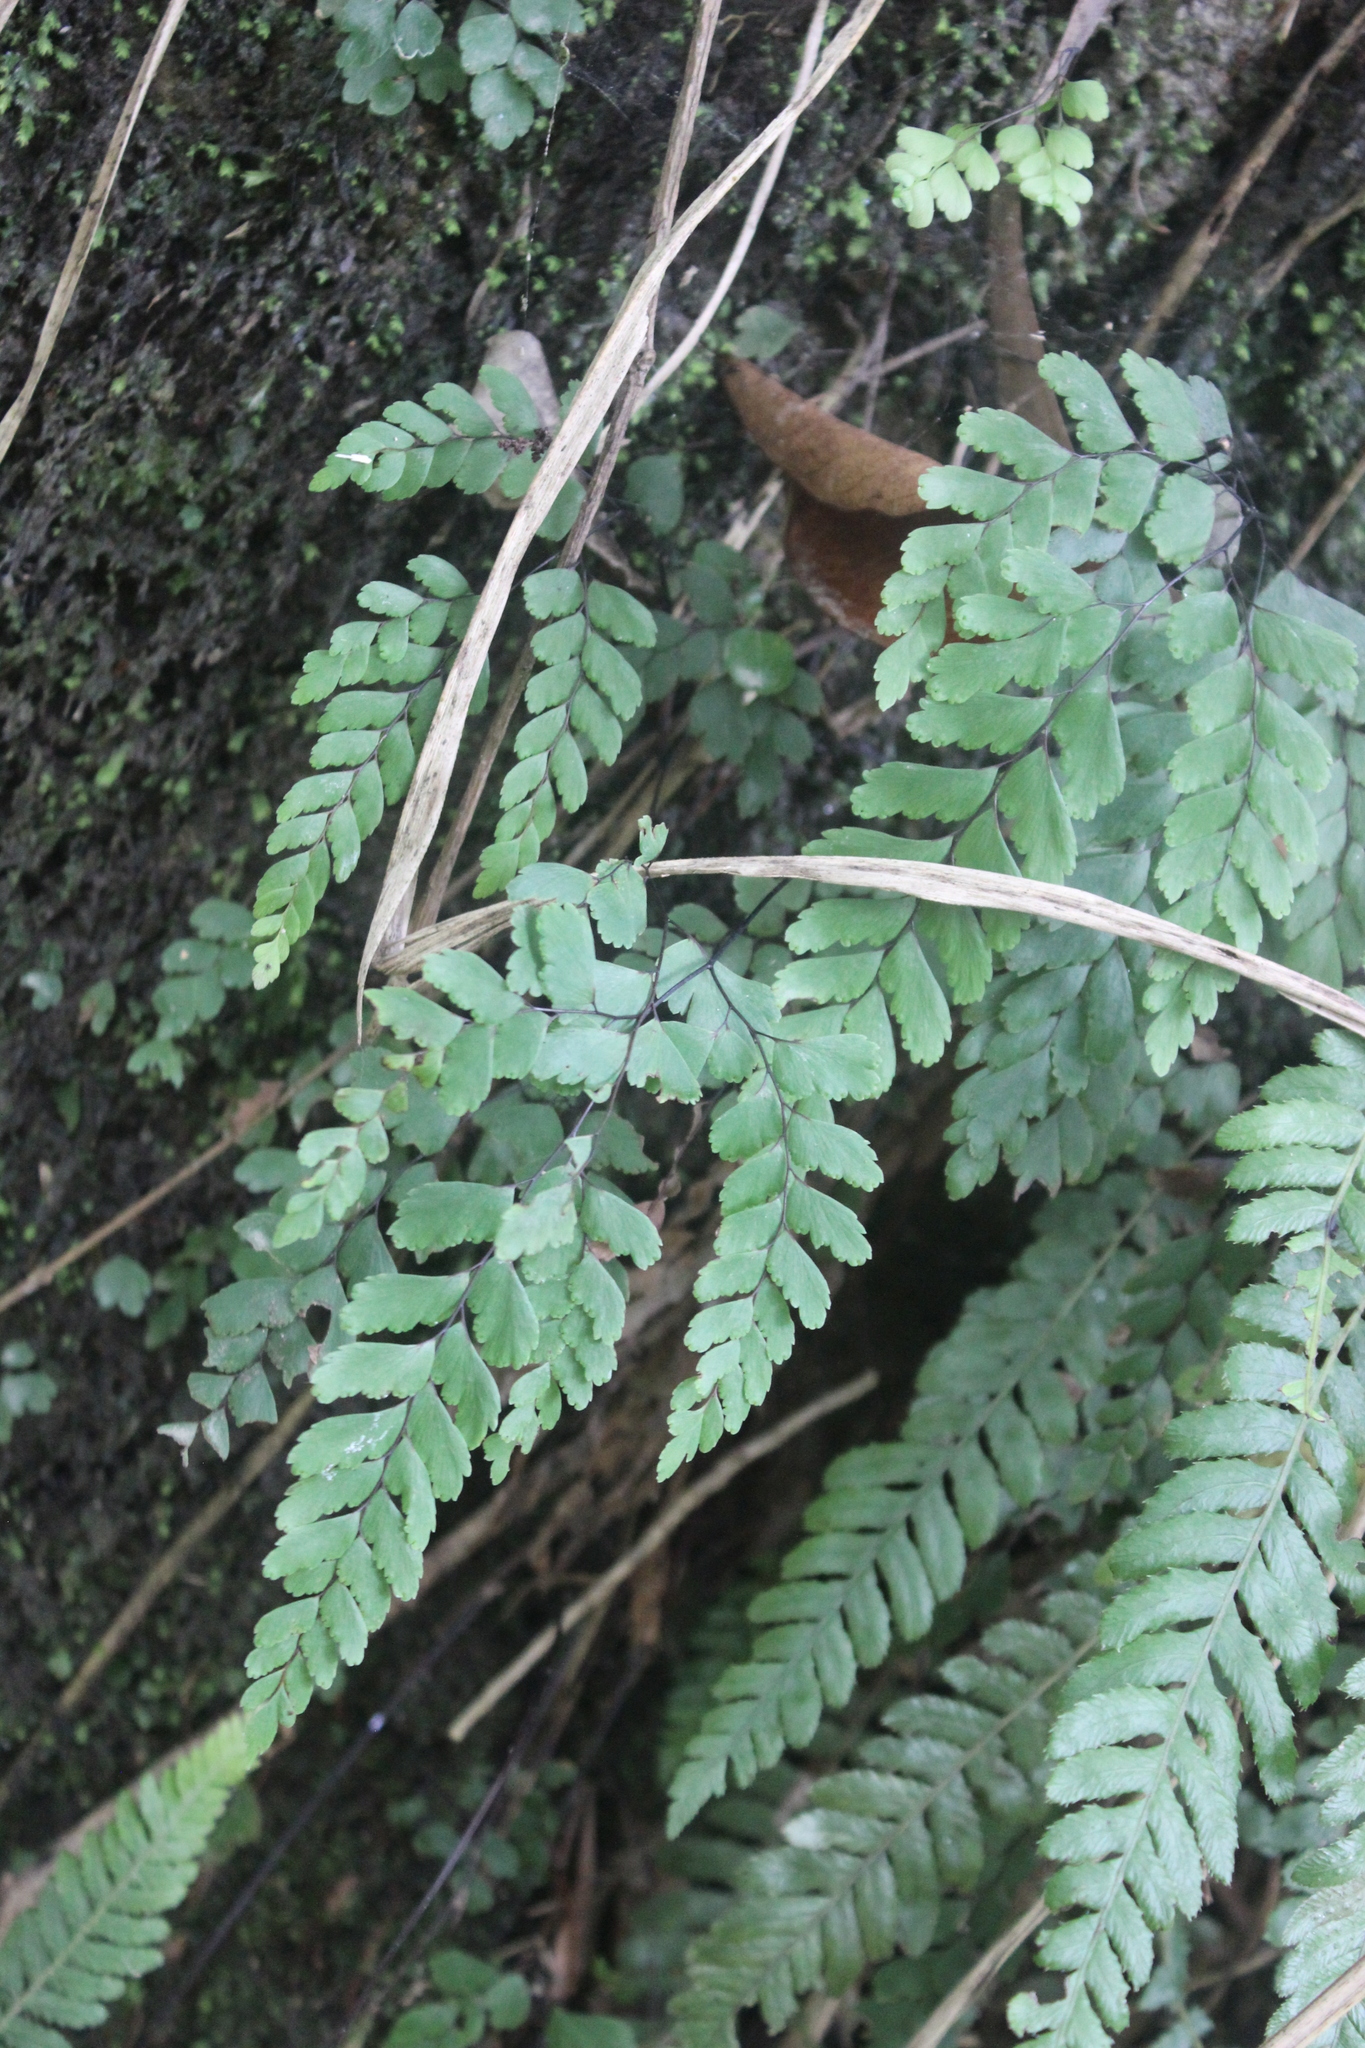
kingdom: Plantae
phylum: Tracheophyta
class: Polypodiopsida
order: Polypodiales
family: Pteridaceae
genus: Adiantum
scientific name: Adiantum cunninghamii
